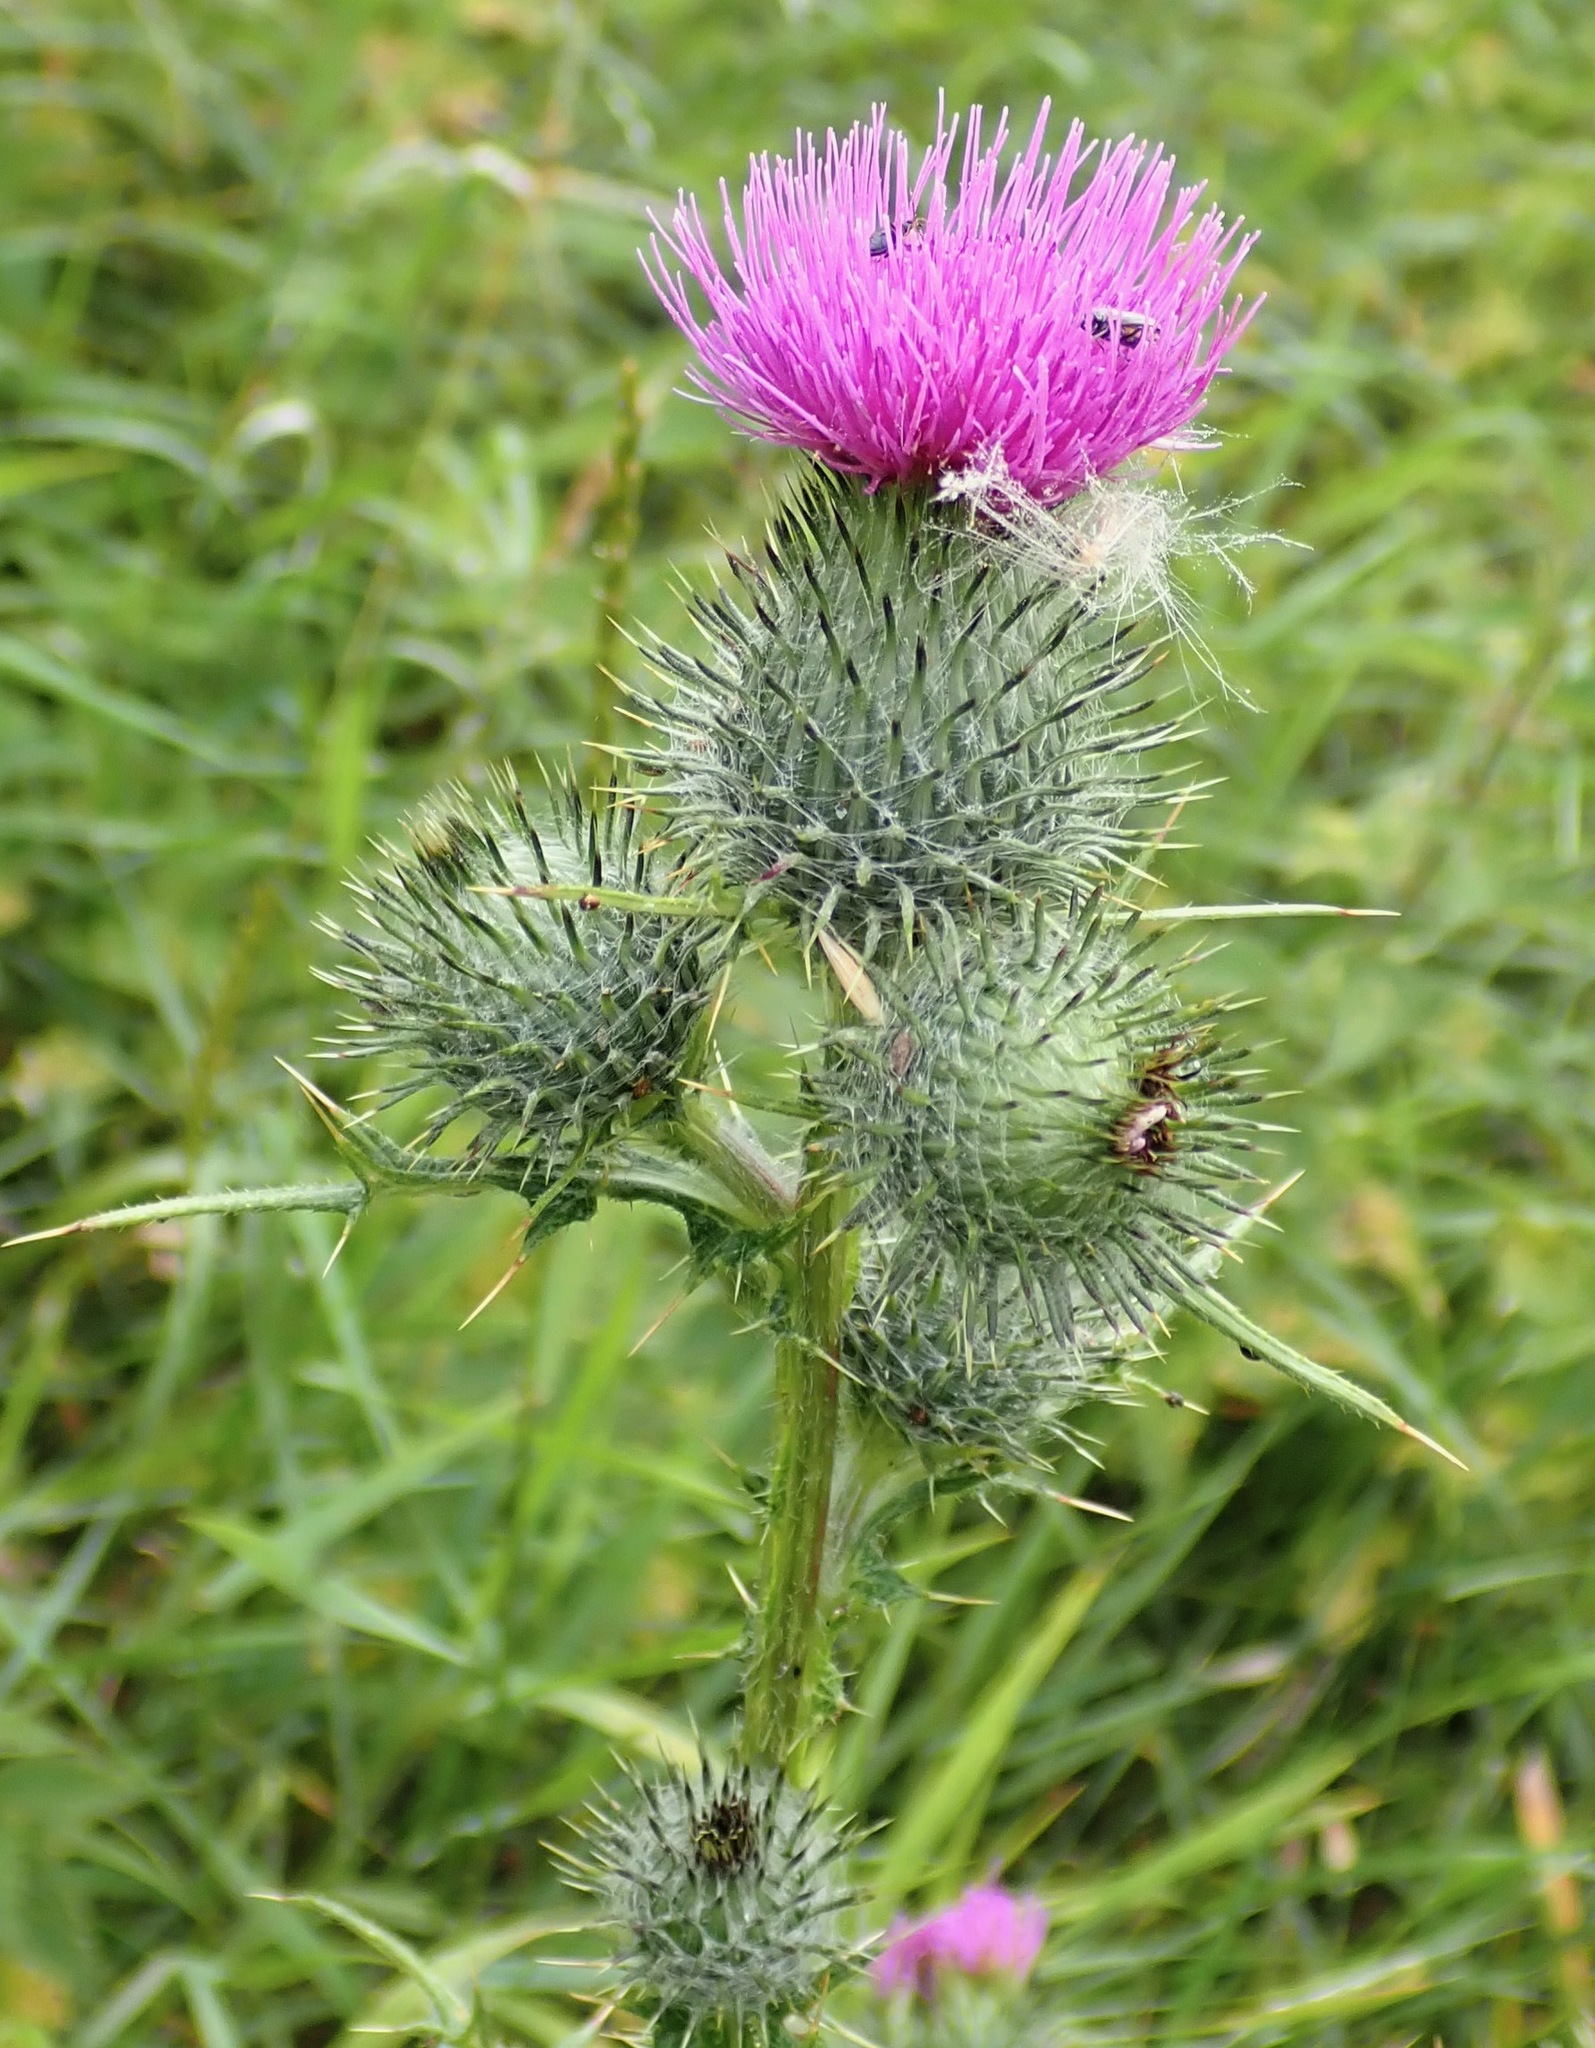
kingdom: Plantae
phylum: Tracheophyta
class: Magnoliopsida
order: Asterales
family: Asteraceae
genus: Cirsium
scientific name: Cirsium vulgare
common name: Bull thistle
